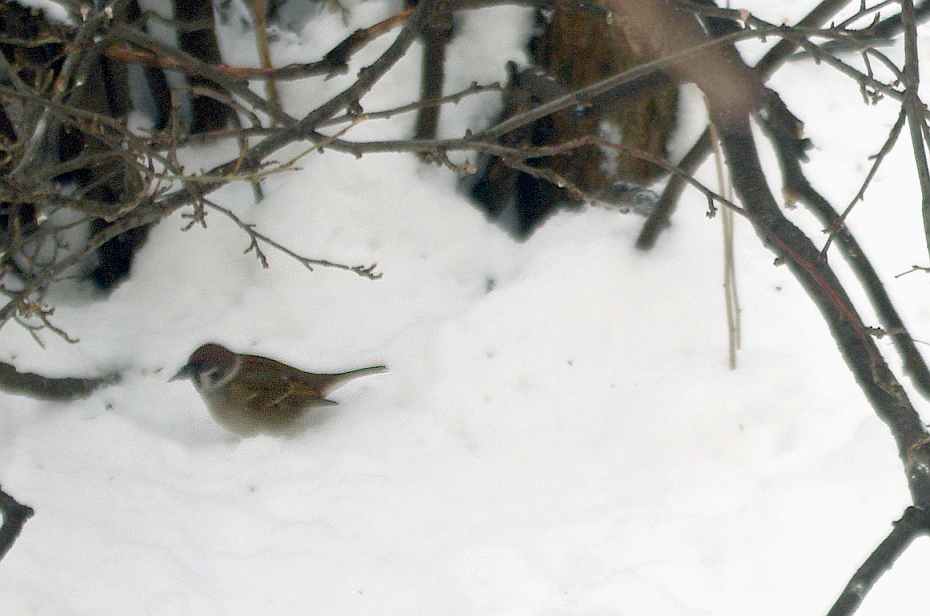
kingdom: Animalia
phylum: Chordata
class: Aves
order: Passeriformes
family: Passeridae
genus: Passer
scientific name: Passer montanus
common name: Eurasian tree sparrow
